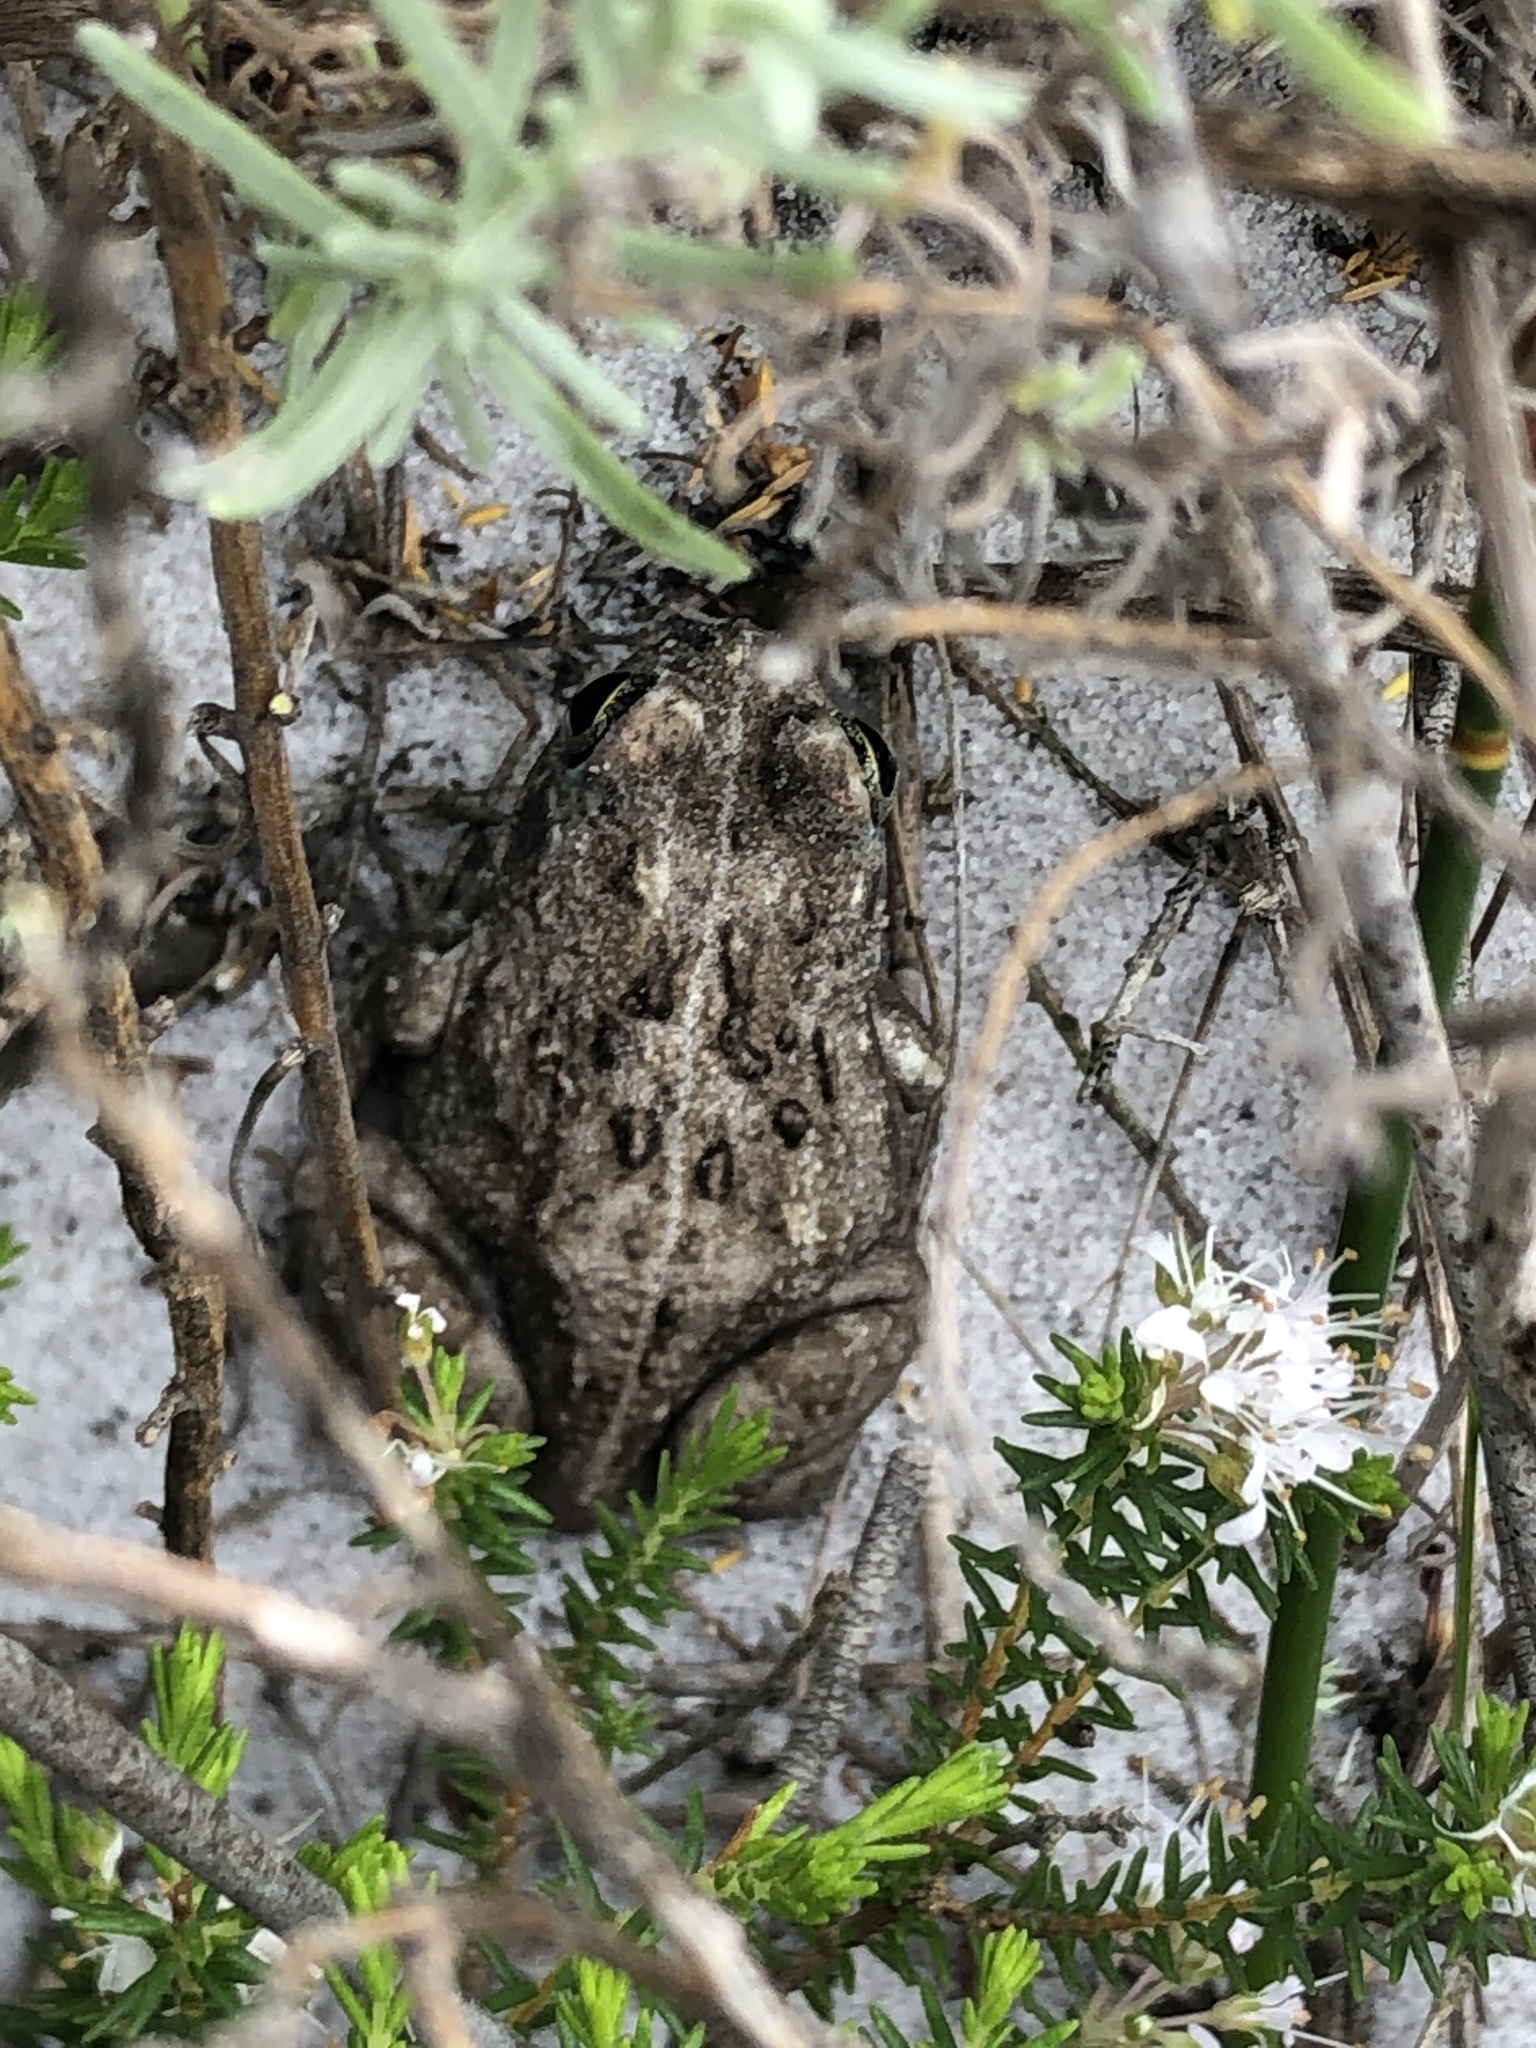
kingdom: Animalia
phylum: Chordata
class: Amphibia
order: Anura
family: Pyxicephalidae
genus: Amietia
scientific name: Amietia fuscigula
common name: Cape rana
